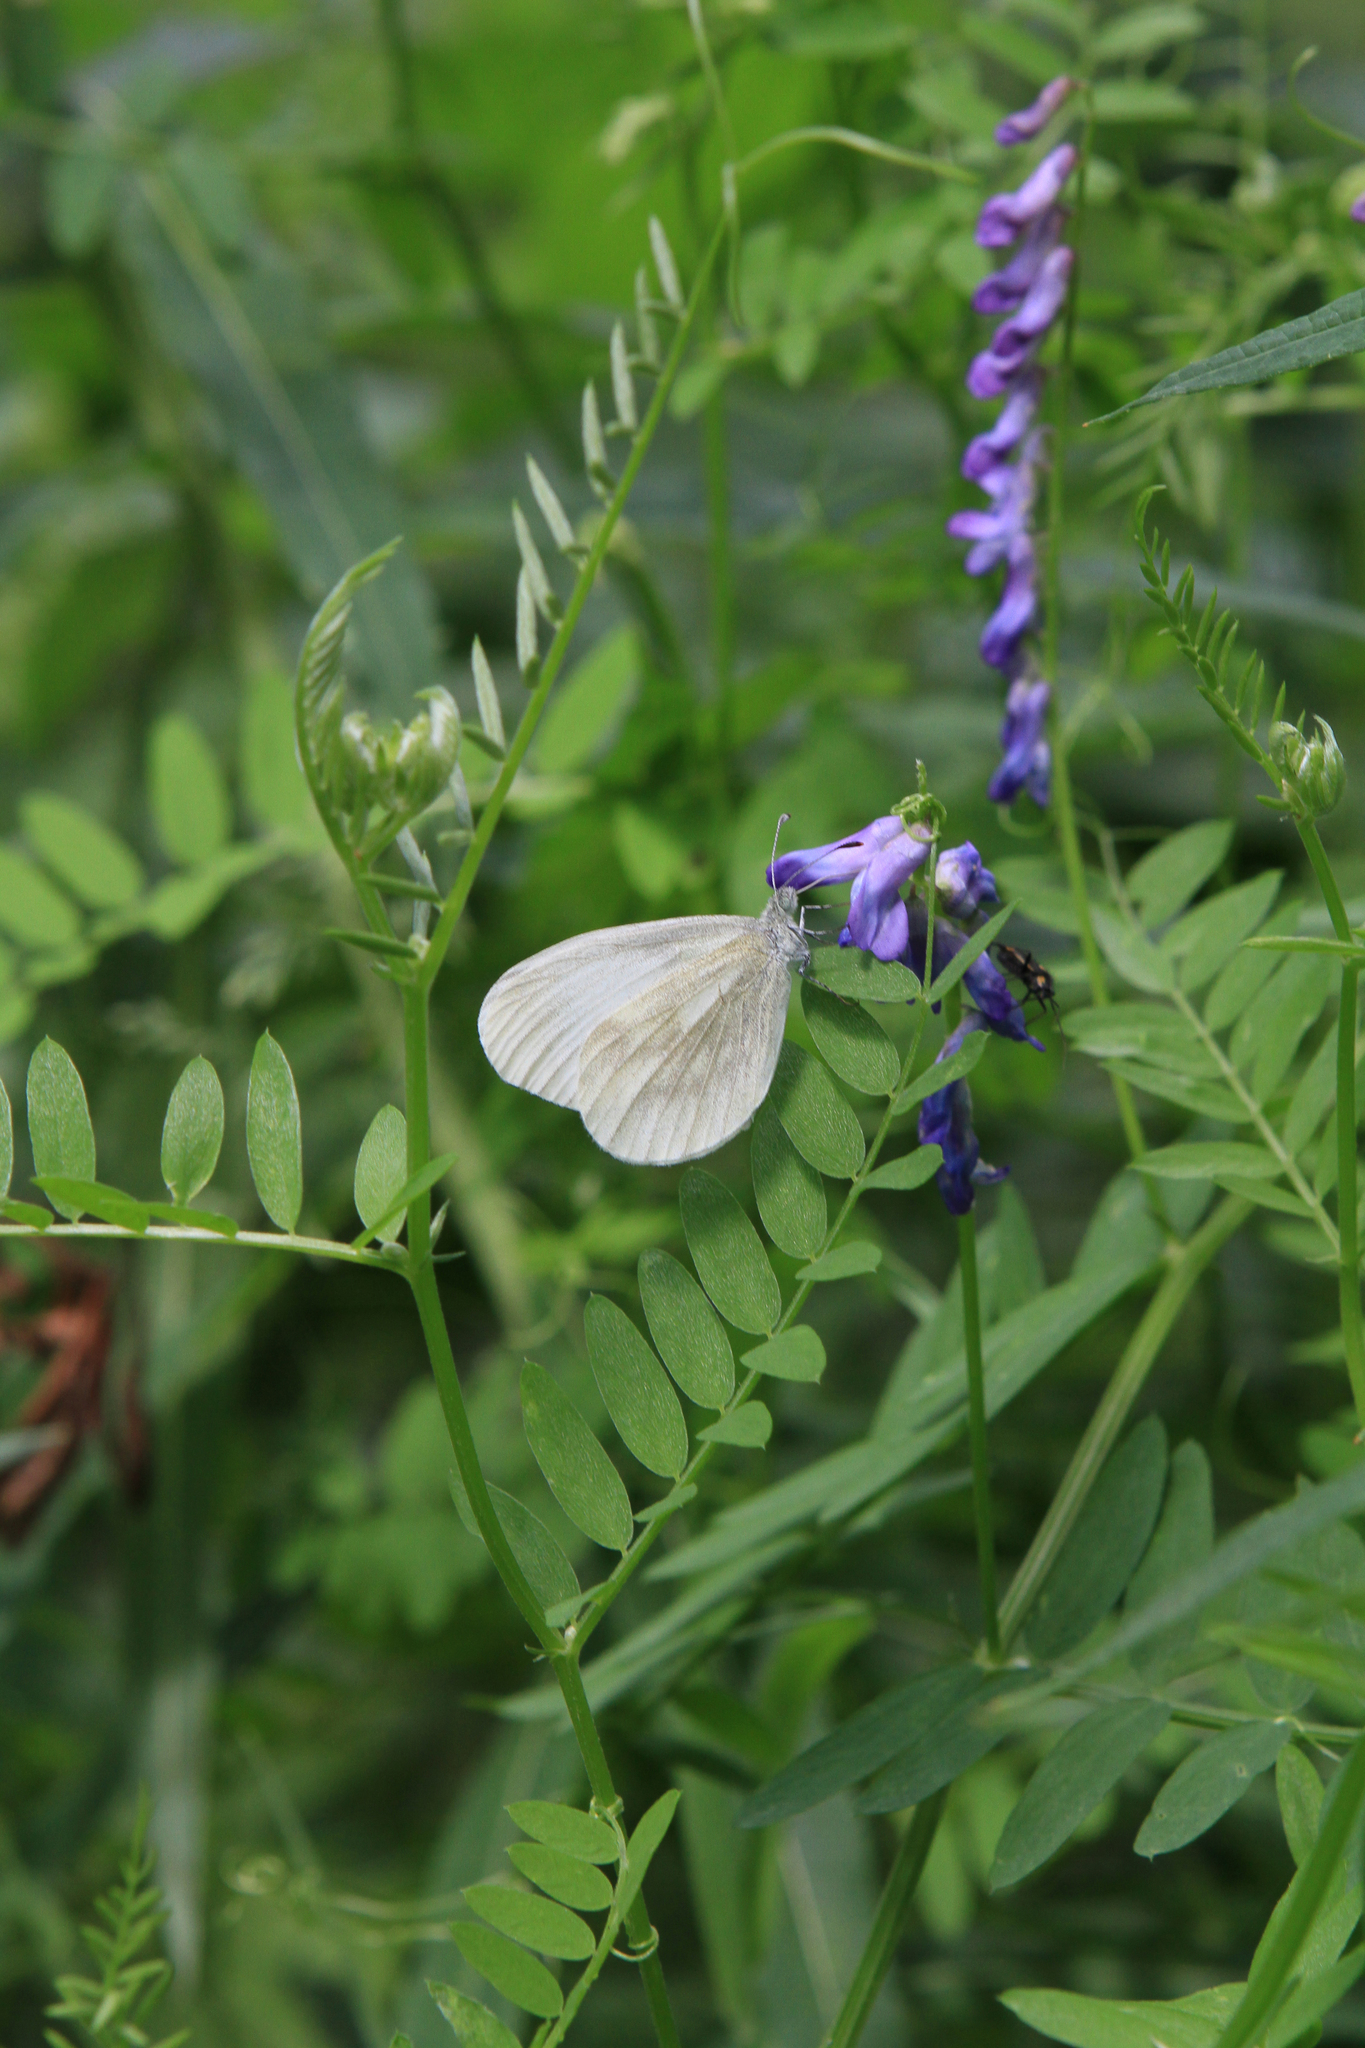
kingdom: Plantae
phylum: Tracheophyta
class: Magnoliopsida
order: Fabales
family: Fabaceae
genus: Vicia
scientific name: Vicia cracca
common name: Bird vetch
